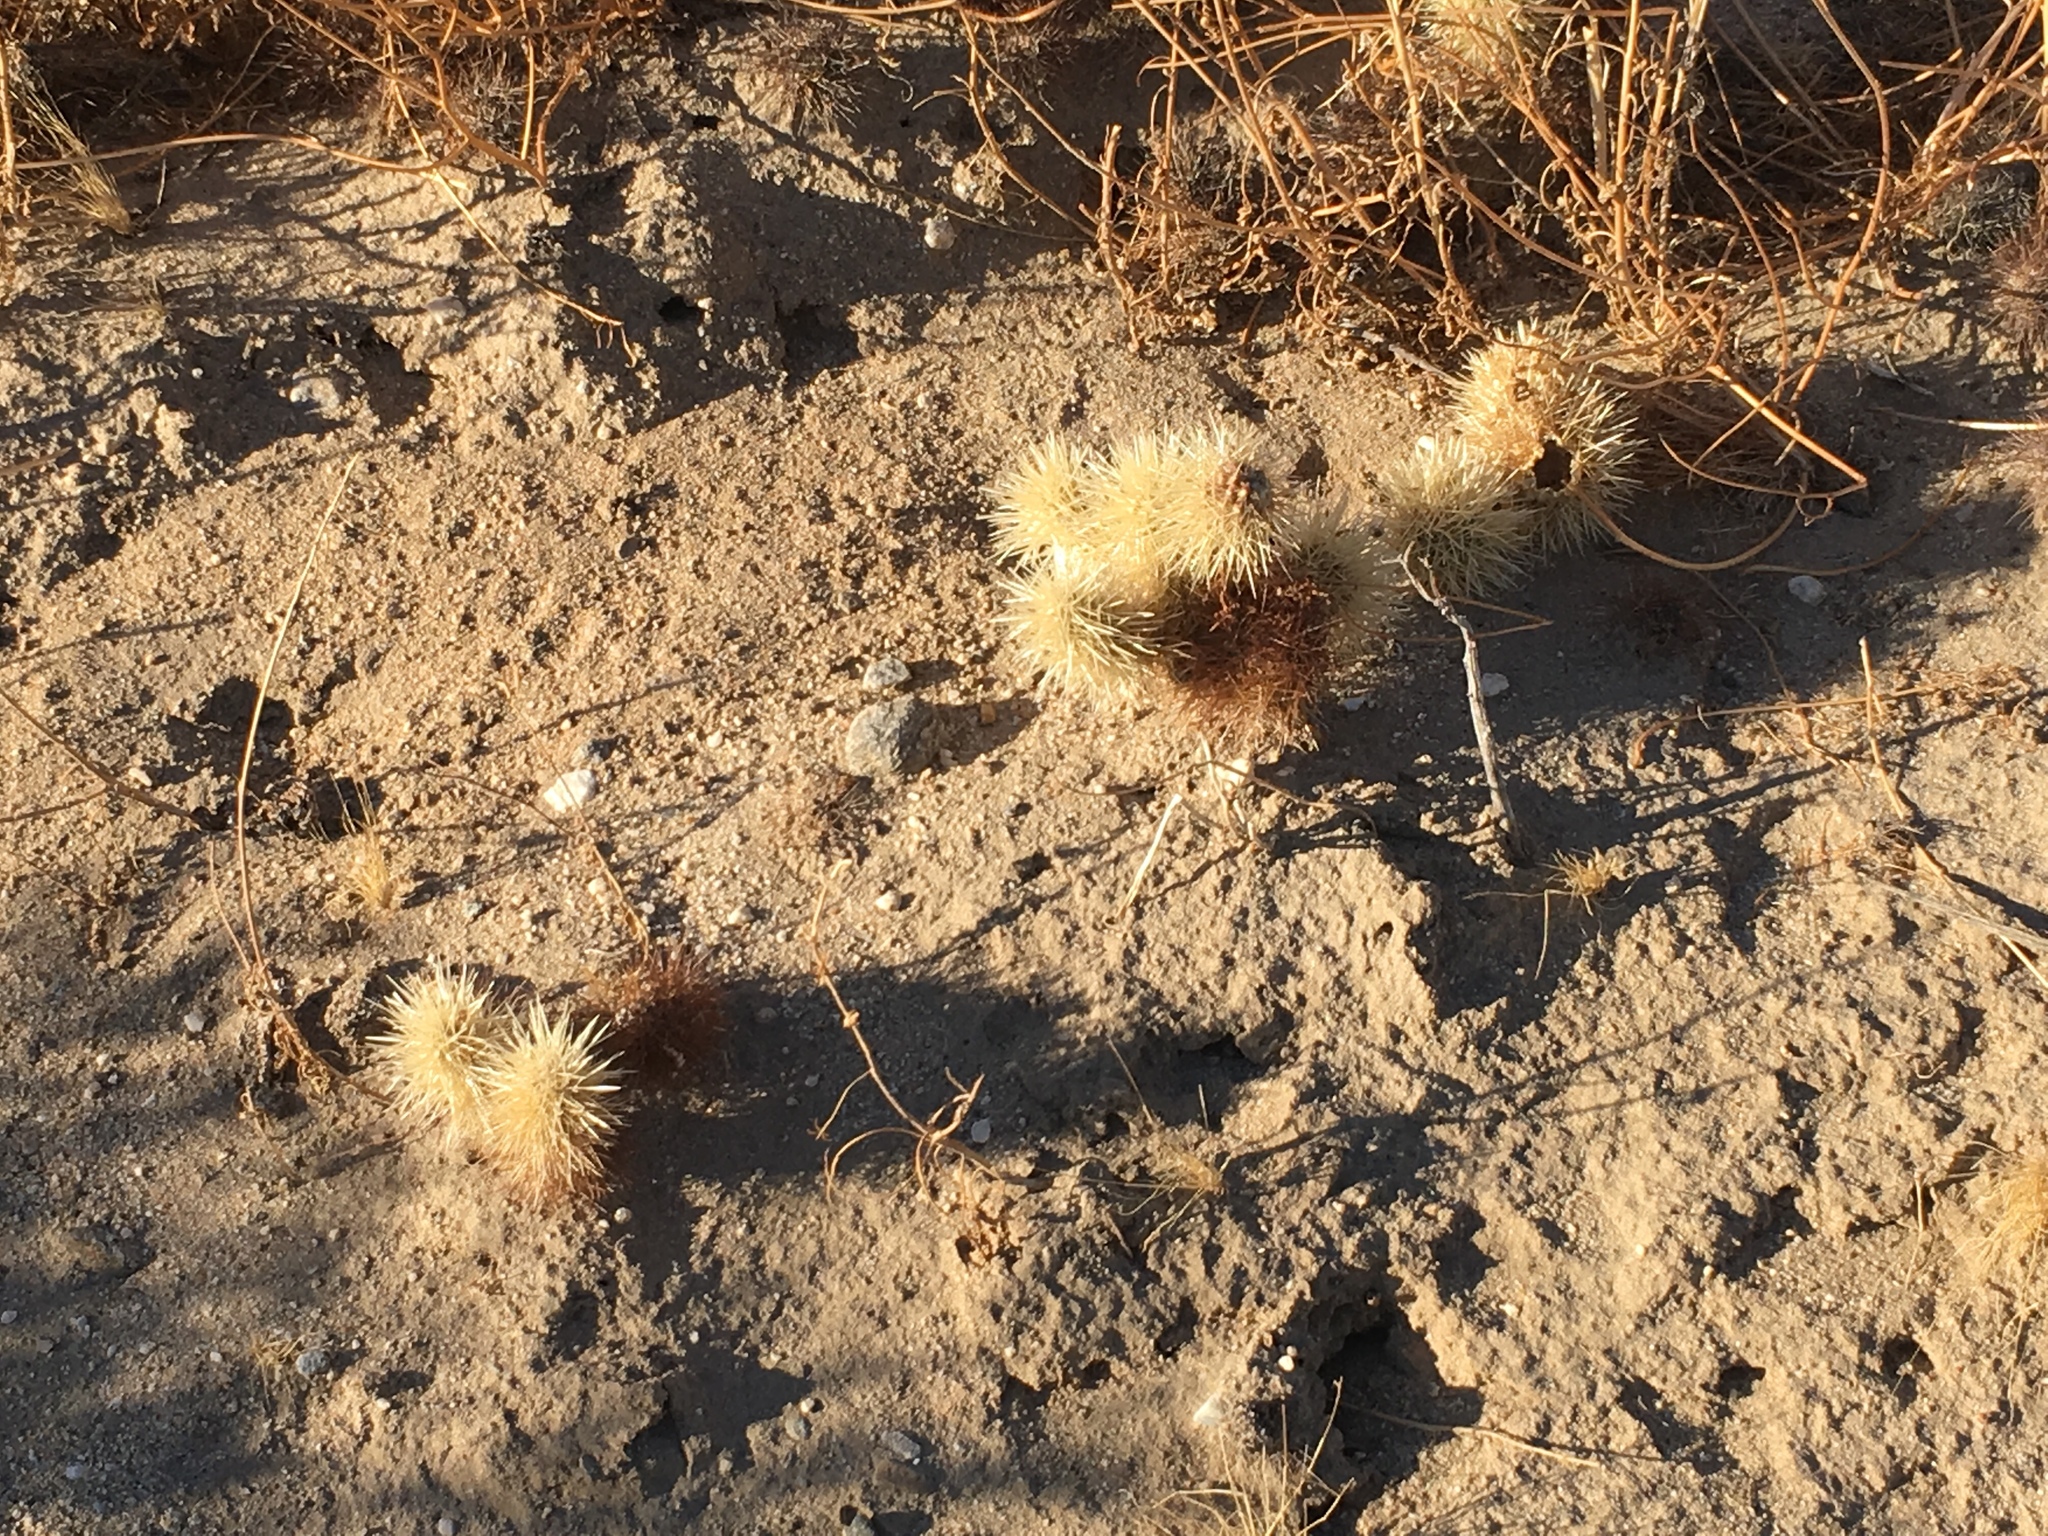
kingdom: Plantae
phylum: Tracheophyta
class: Magnoliopsida
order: Caryophyllales
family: Cactaceae
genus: Cylindropuntia
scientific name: Cylindropuntia fosbergii
